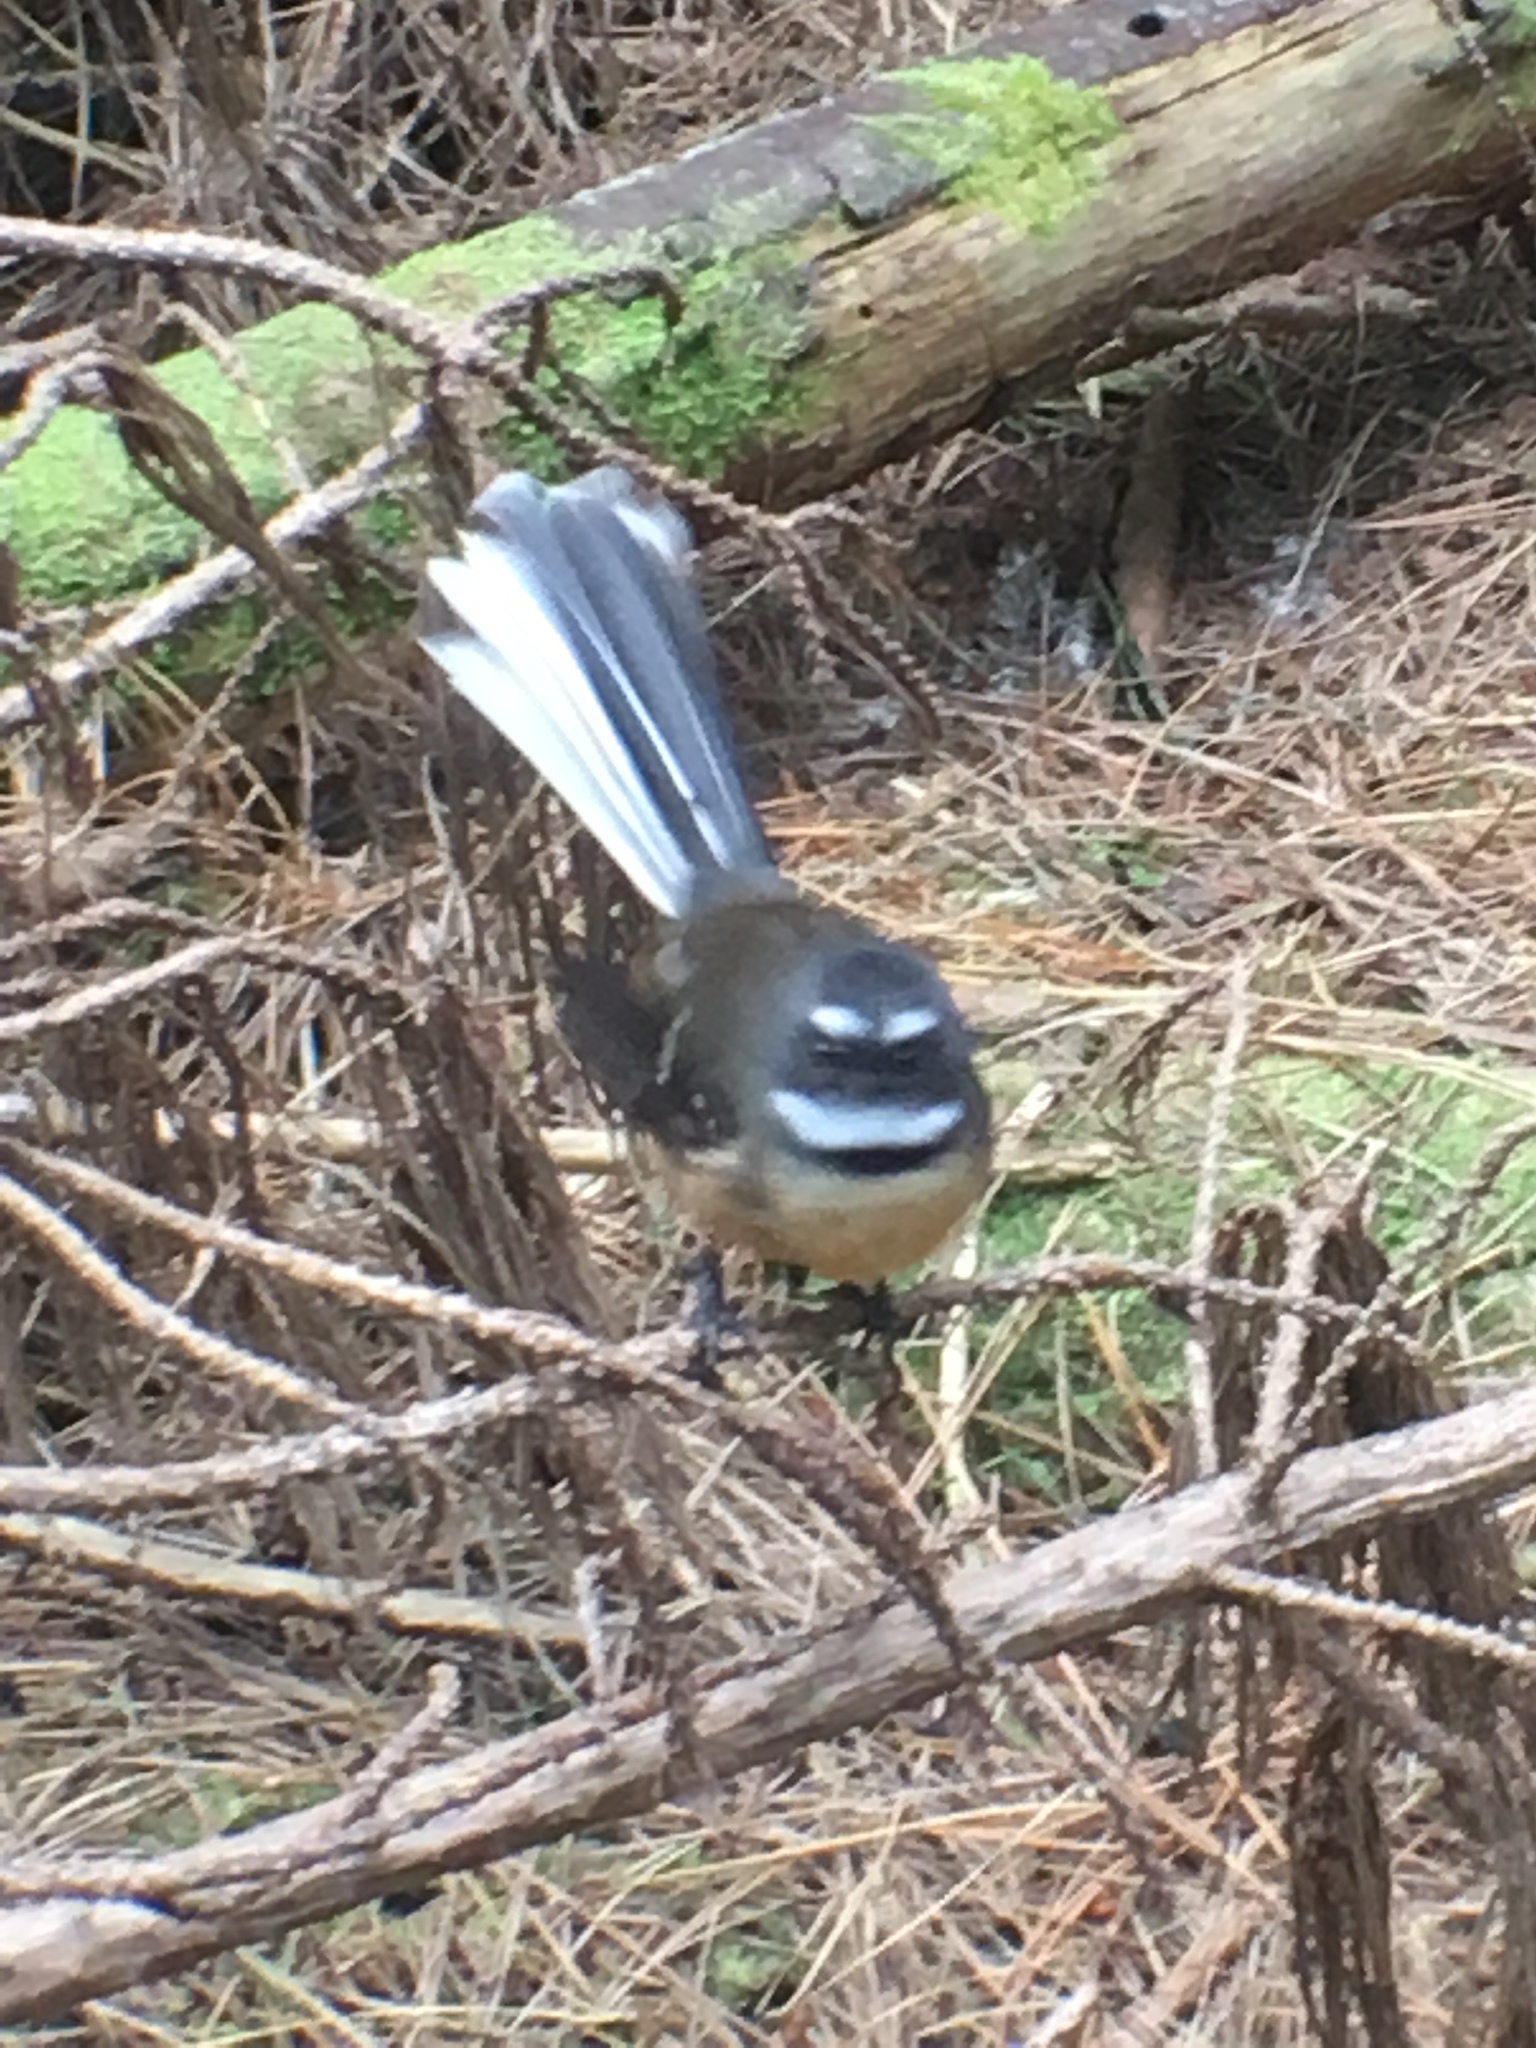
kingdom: Animalia
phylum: Chordata
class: Aves
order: Passeriformes
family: Rhipiduridae
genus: Rhipidura
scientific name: Rhipidura fuliginosa
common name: New zealand fantail
